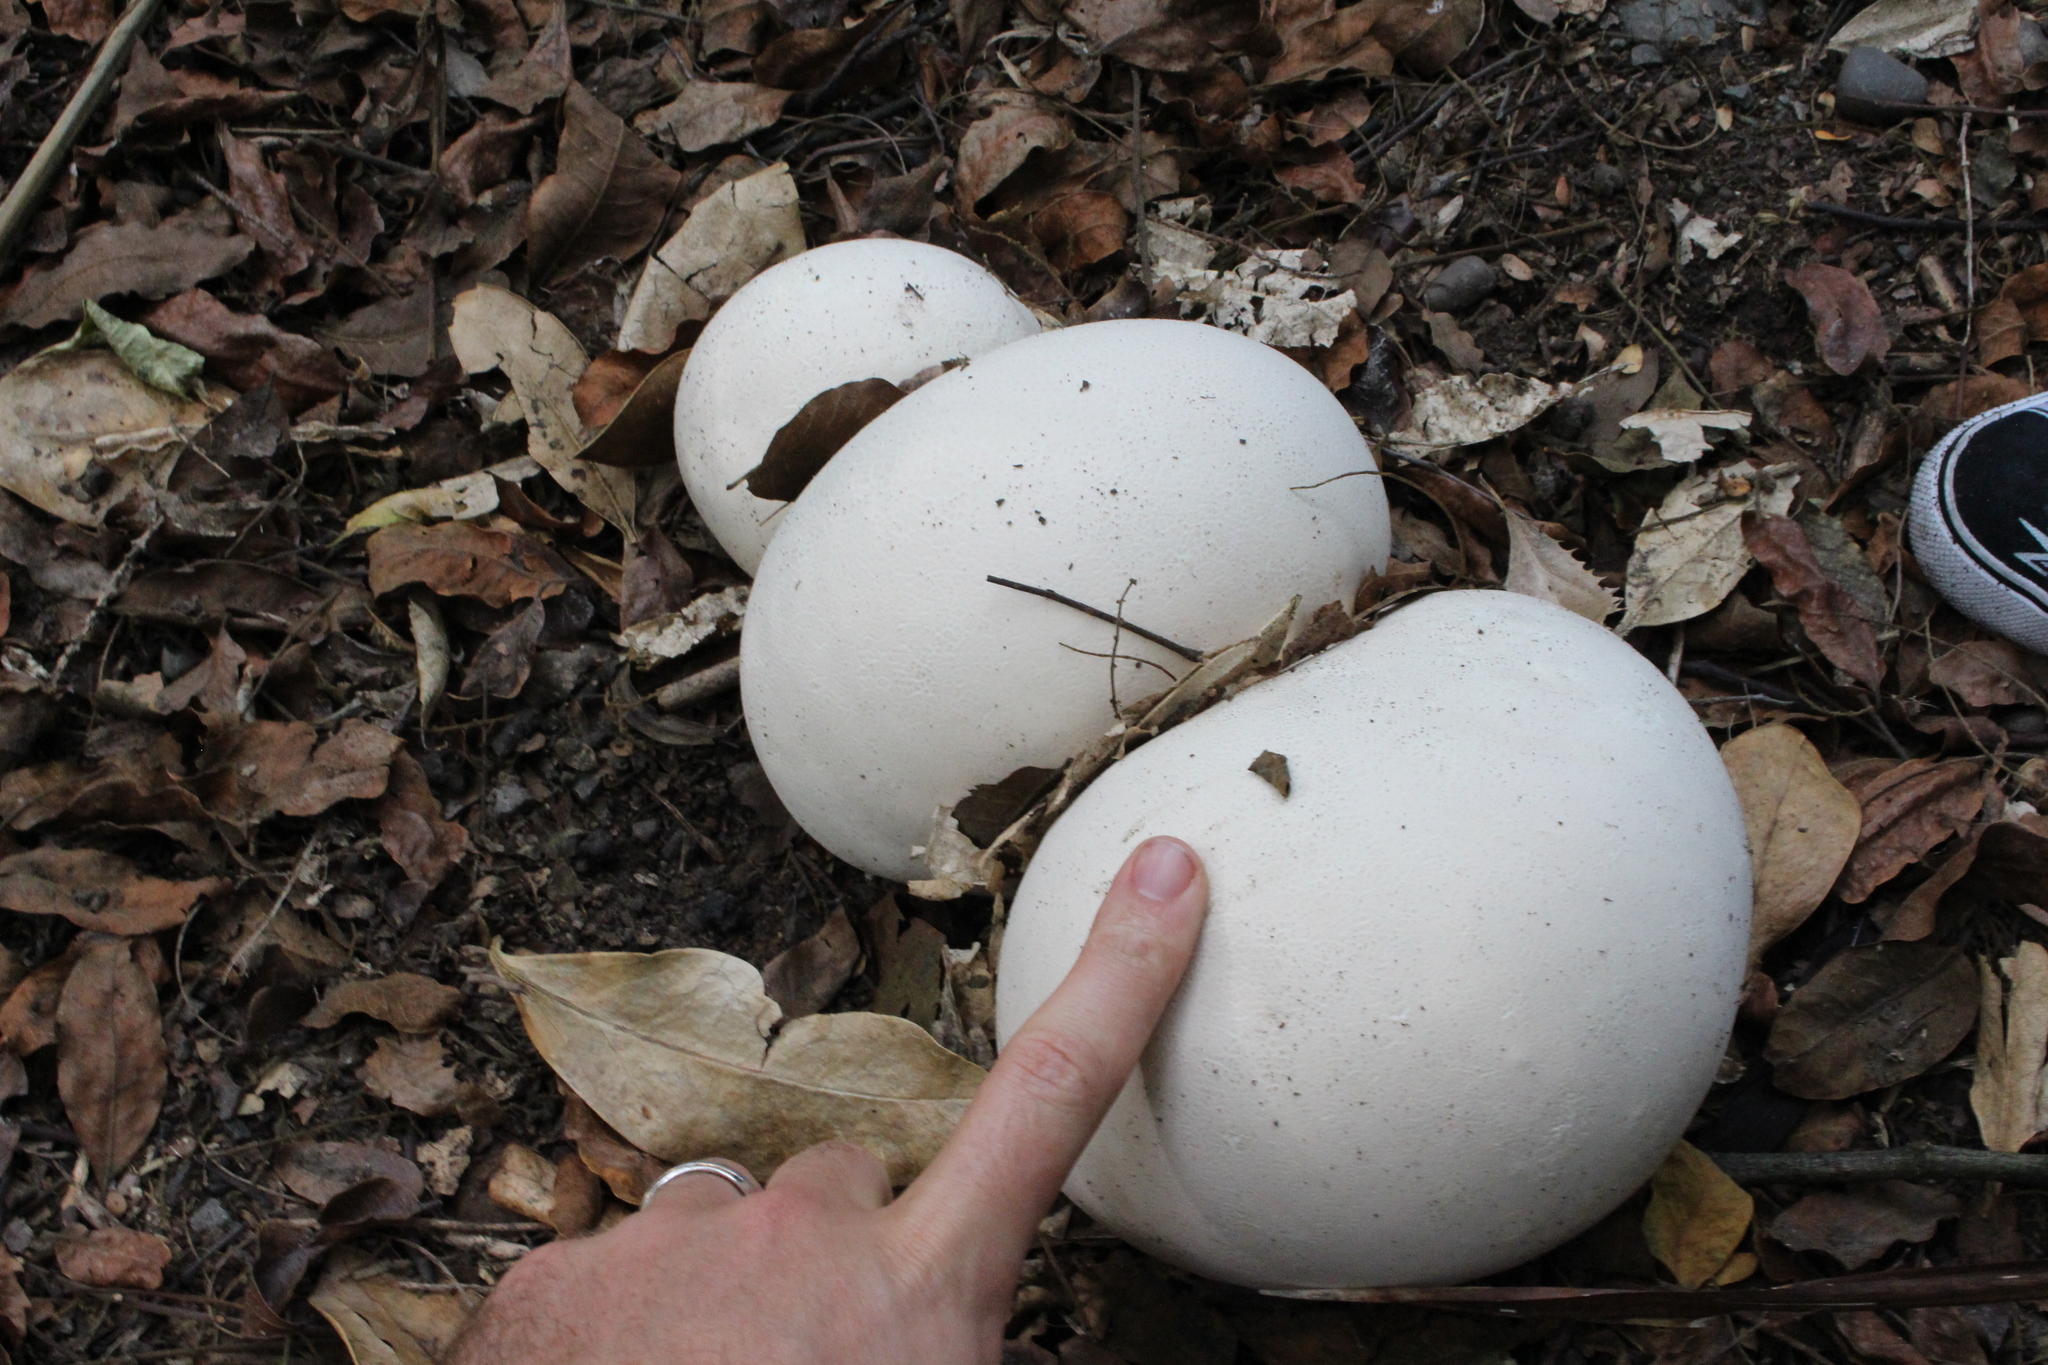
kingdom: Fungi
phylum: Basidiomycota
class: Agaricomycetes
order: Agaricales
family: Lycoperdaceae
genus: Calvatia
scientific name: Calvatia gigantea
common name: Giant puffball
